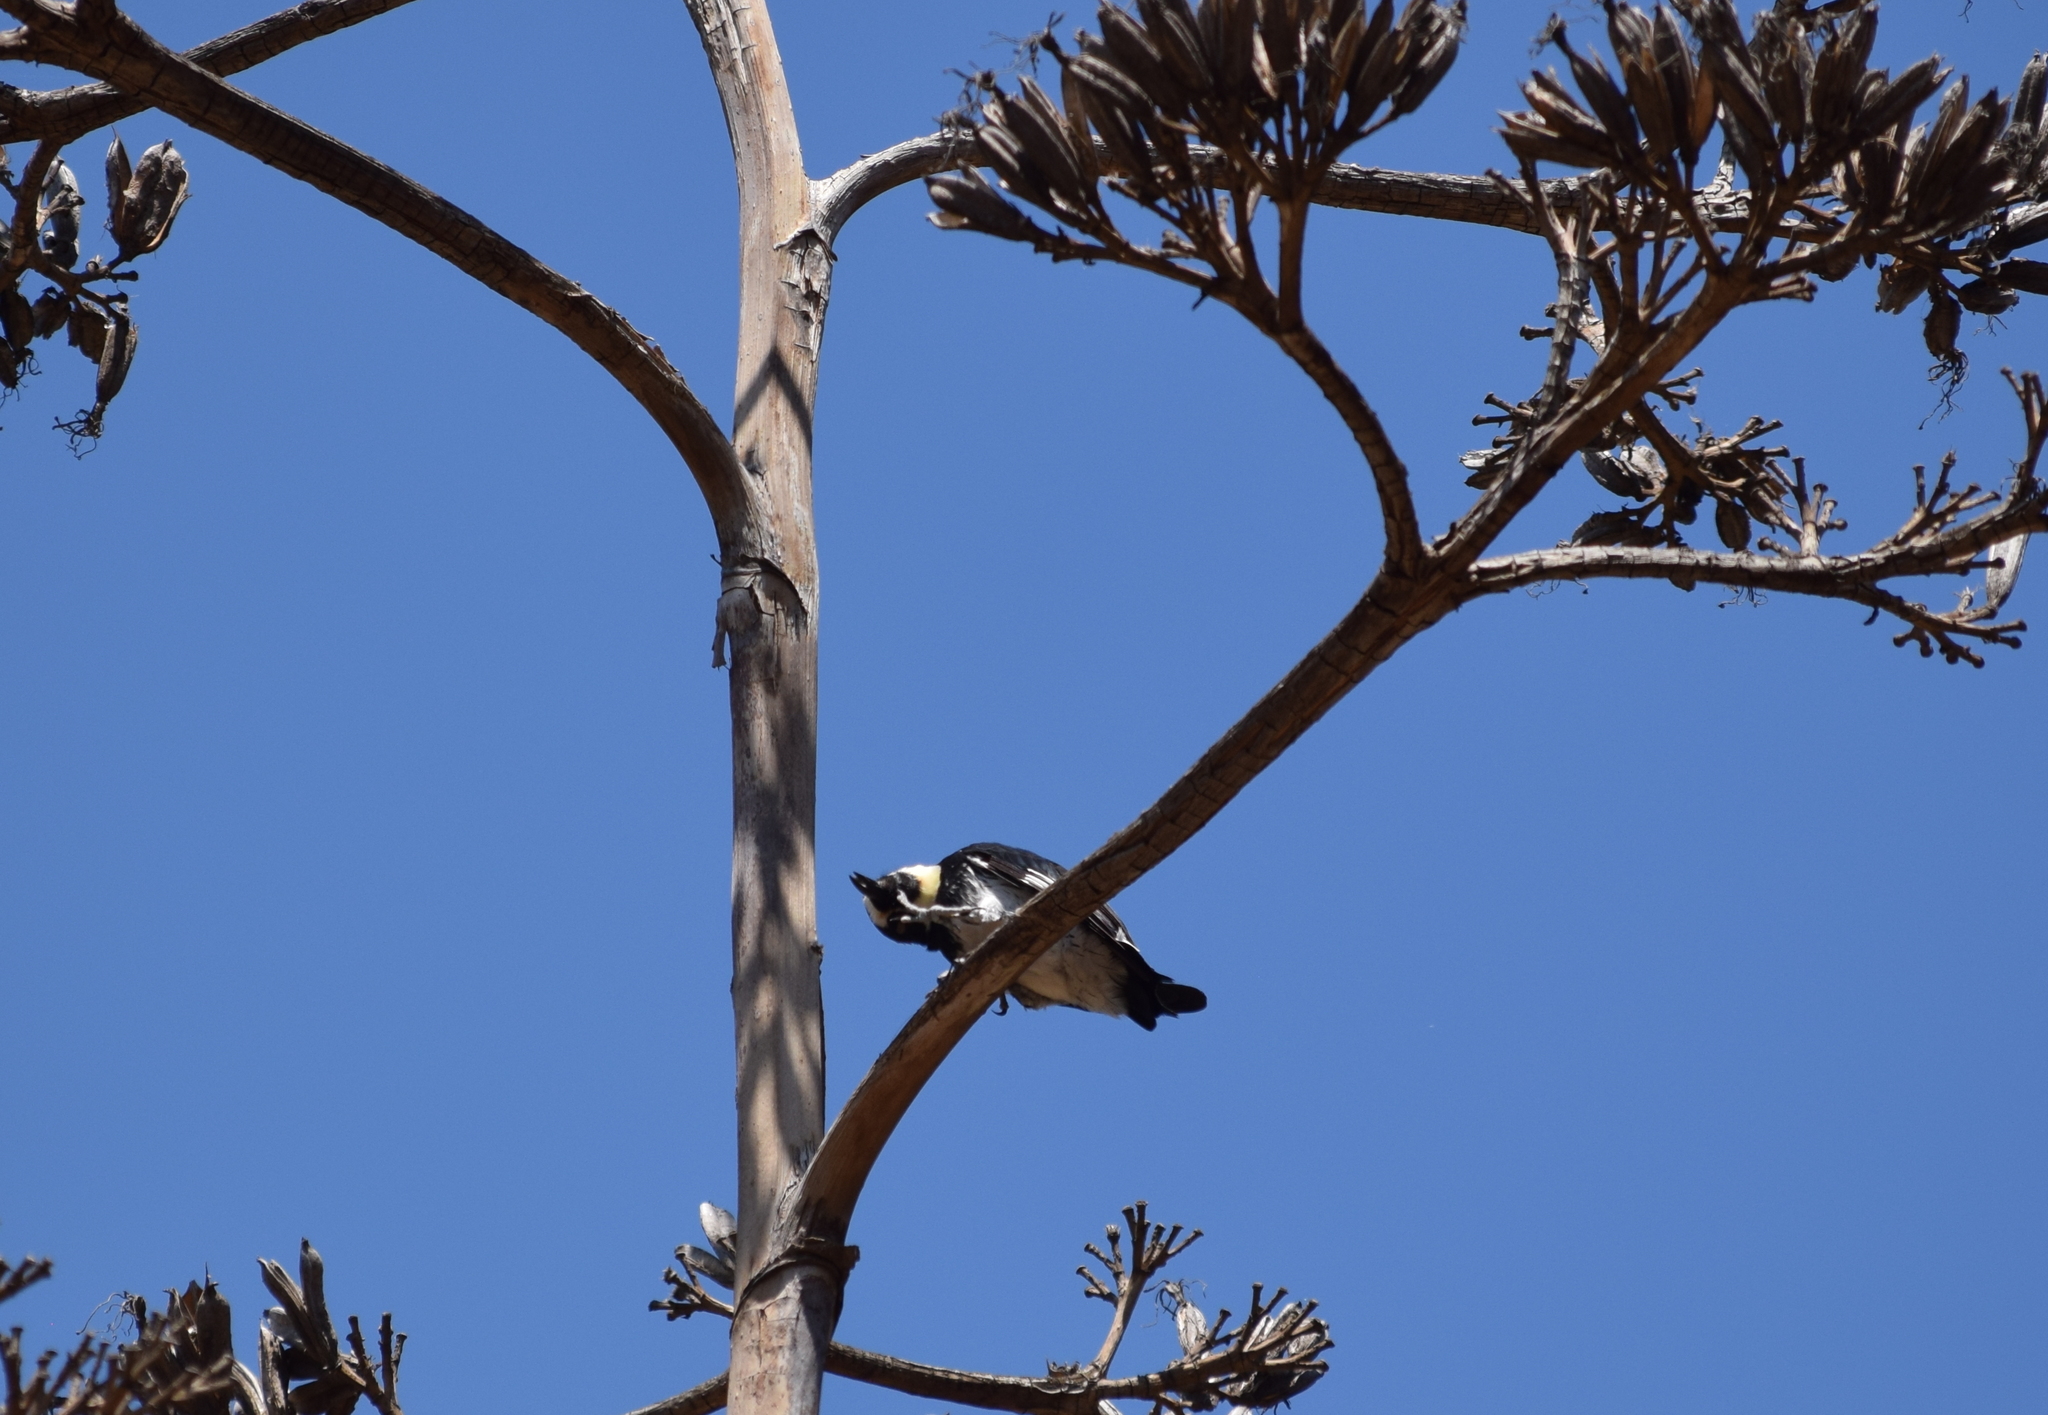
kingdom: Animalia
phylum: Chordata
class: Aves
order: Piciformes
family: Picidae
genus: Melanerpes
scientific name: Melanerpes formicivorus
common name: Acorn woodpecker
